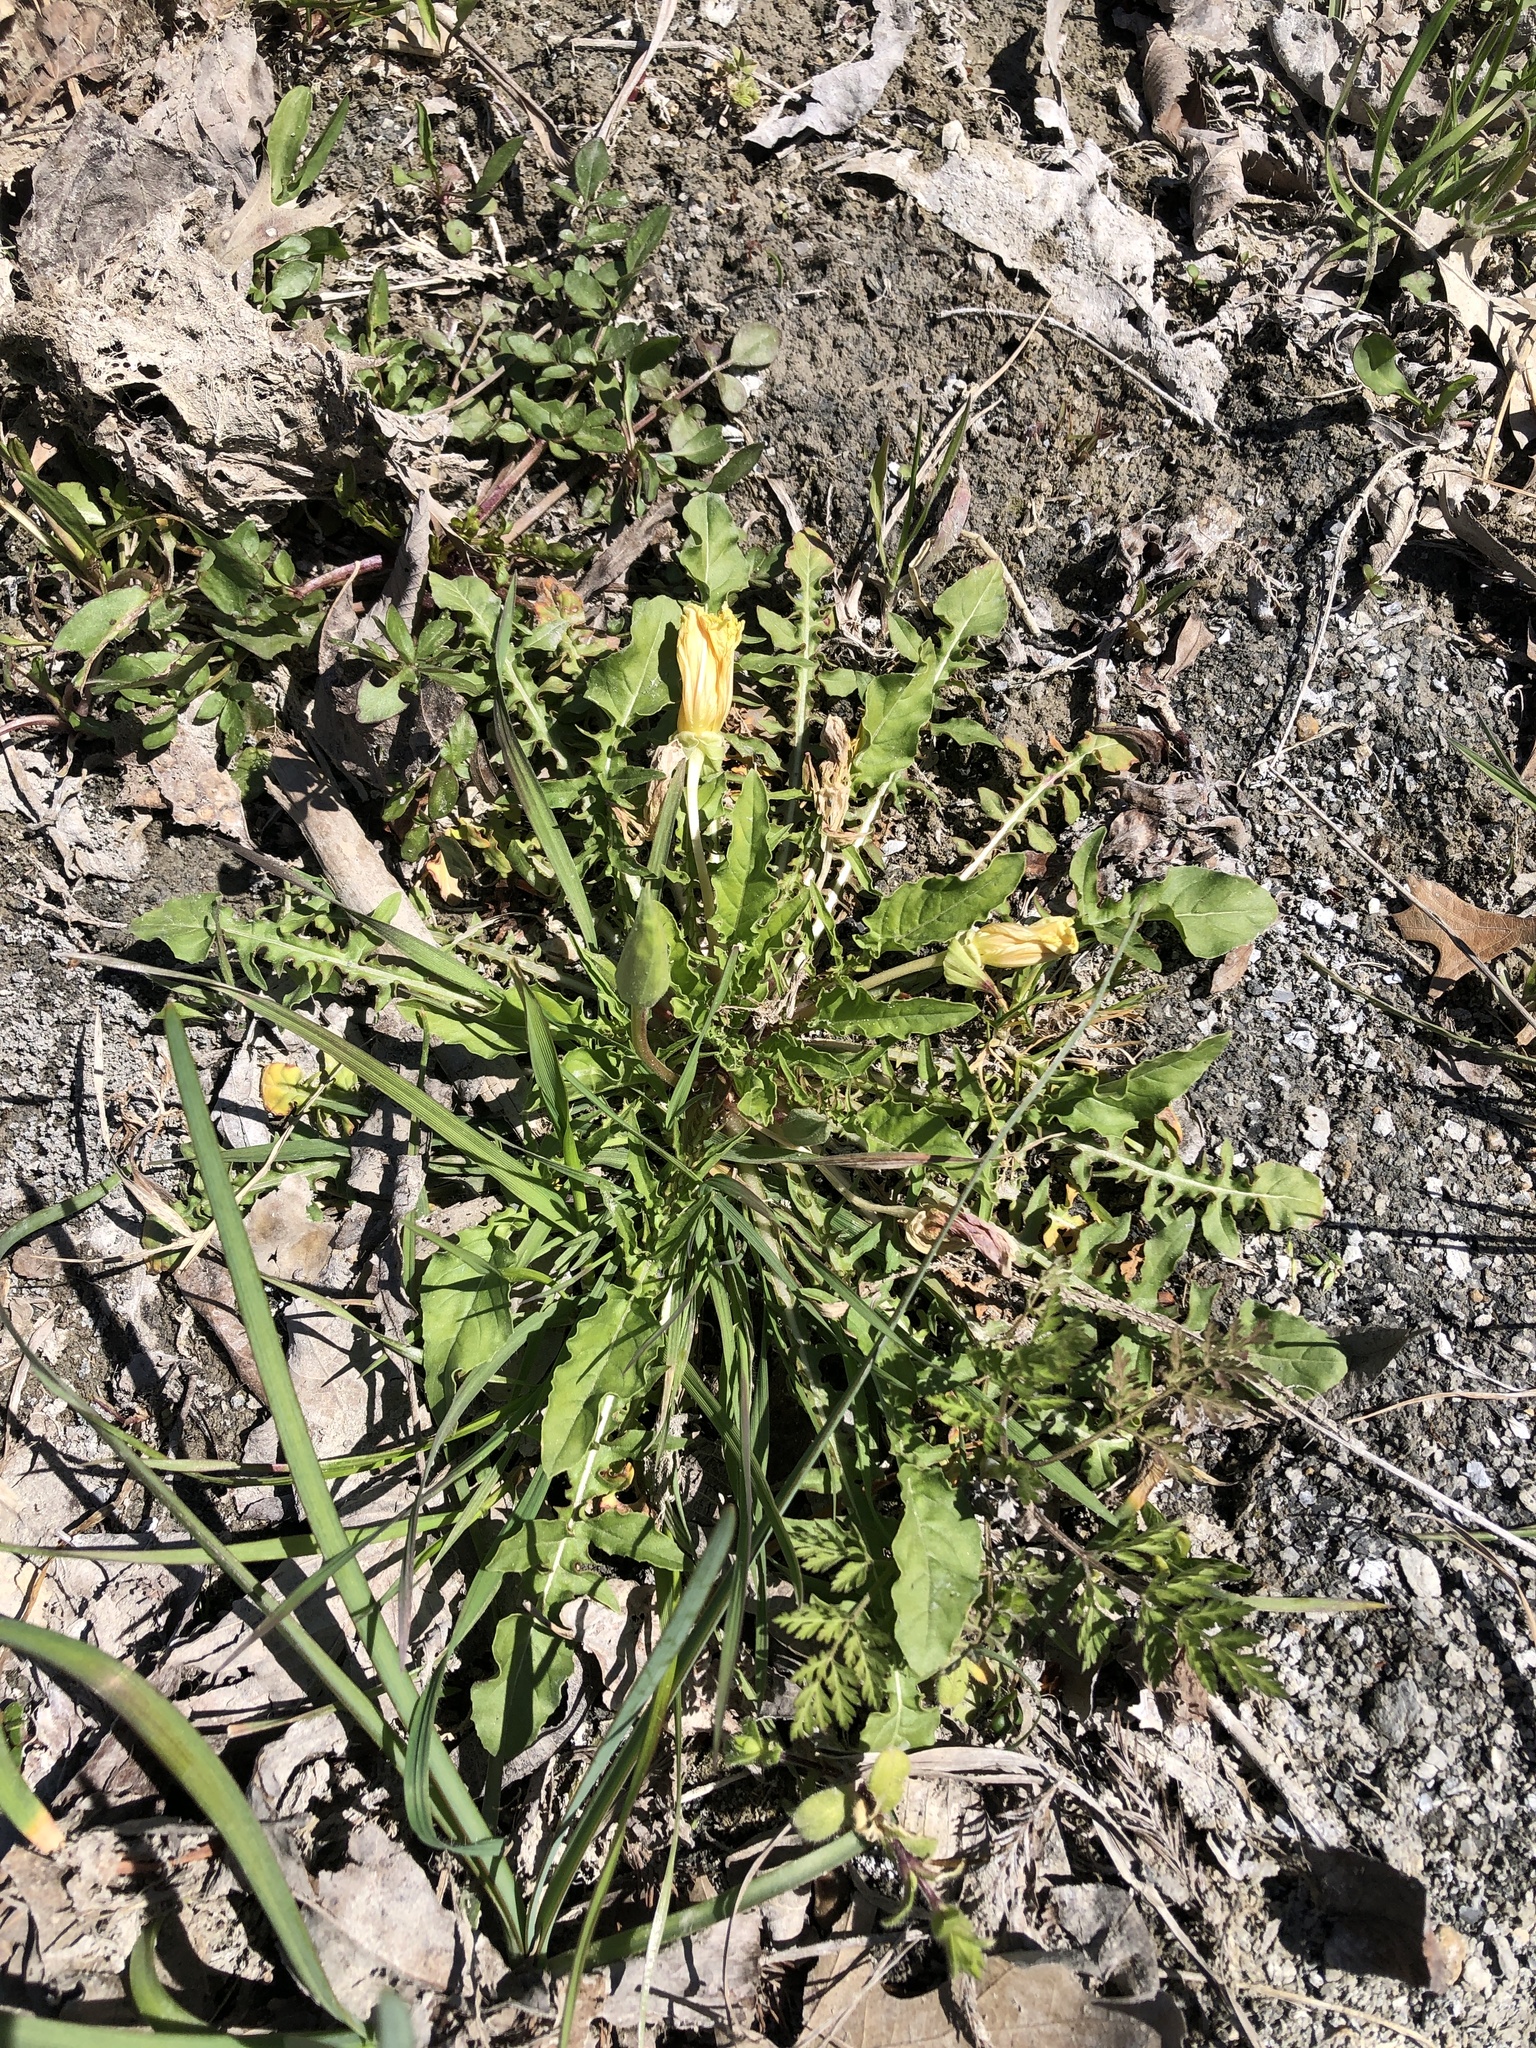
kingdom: Plantae
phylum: Tracheophyta
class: Magnoliopsida
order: Myrtales
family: Onagraceae
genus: Oenothera
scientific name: Oenothera triloba
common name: Sessile evening-primrose
